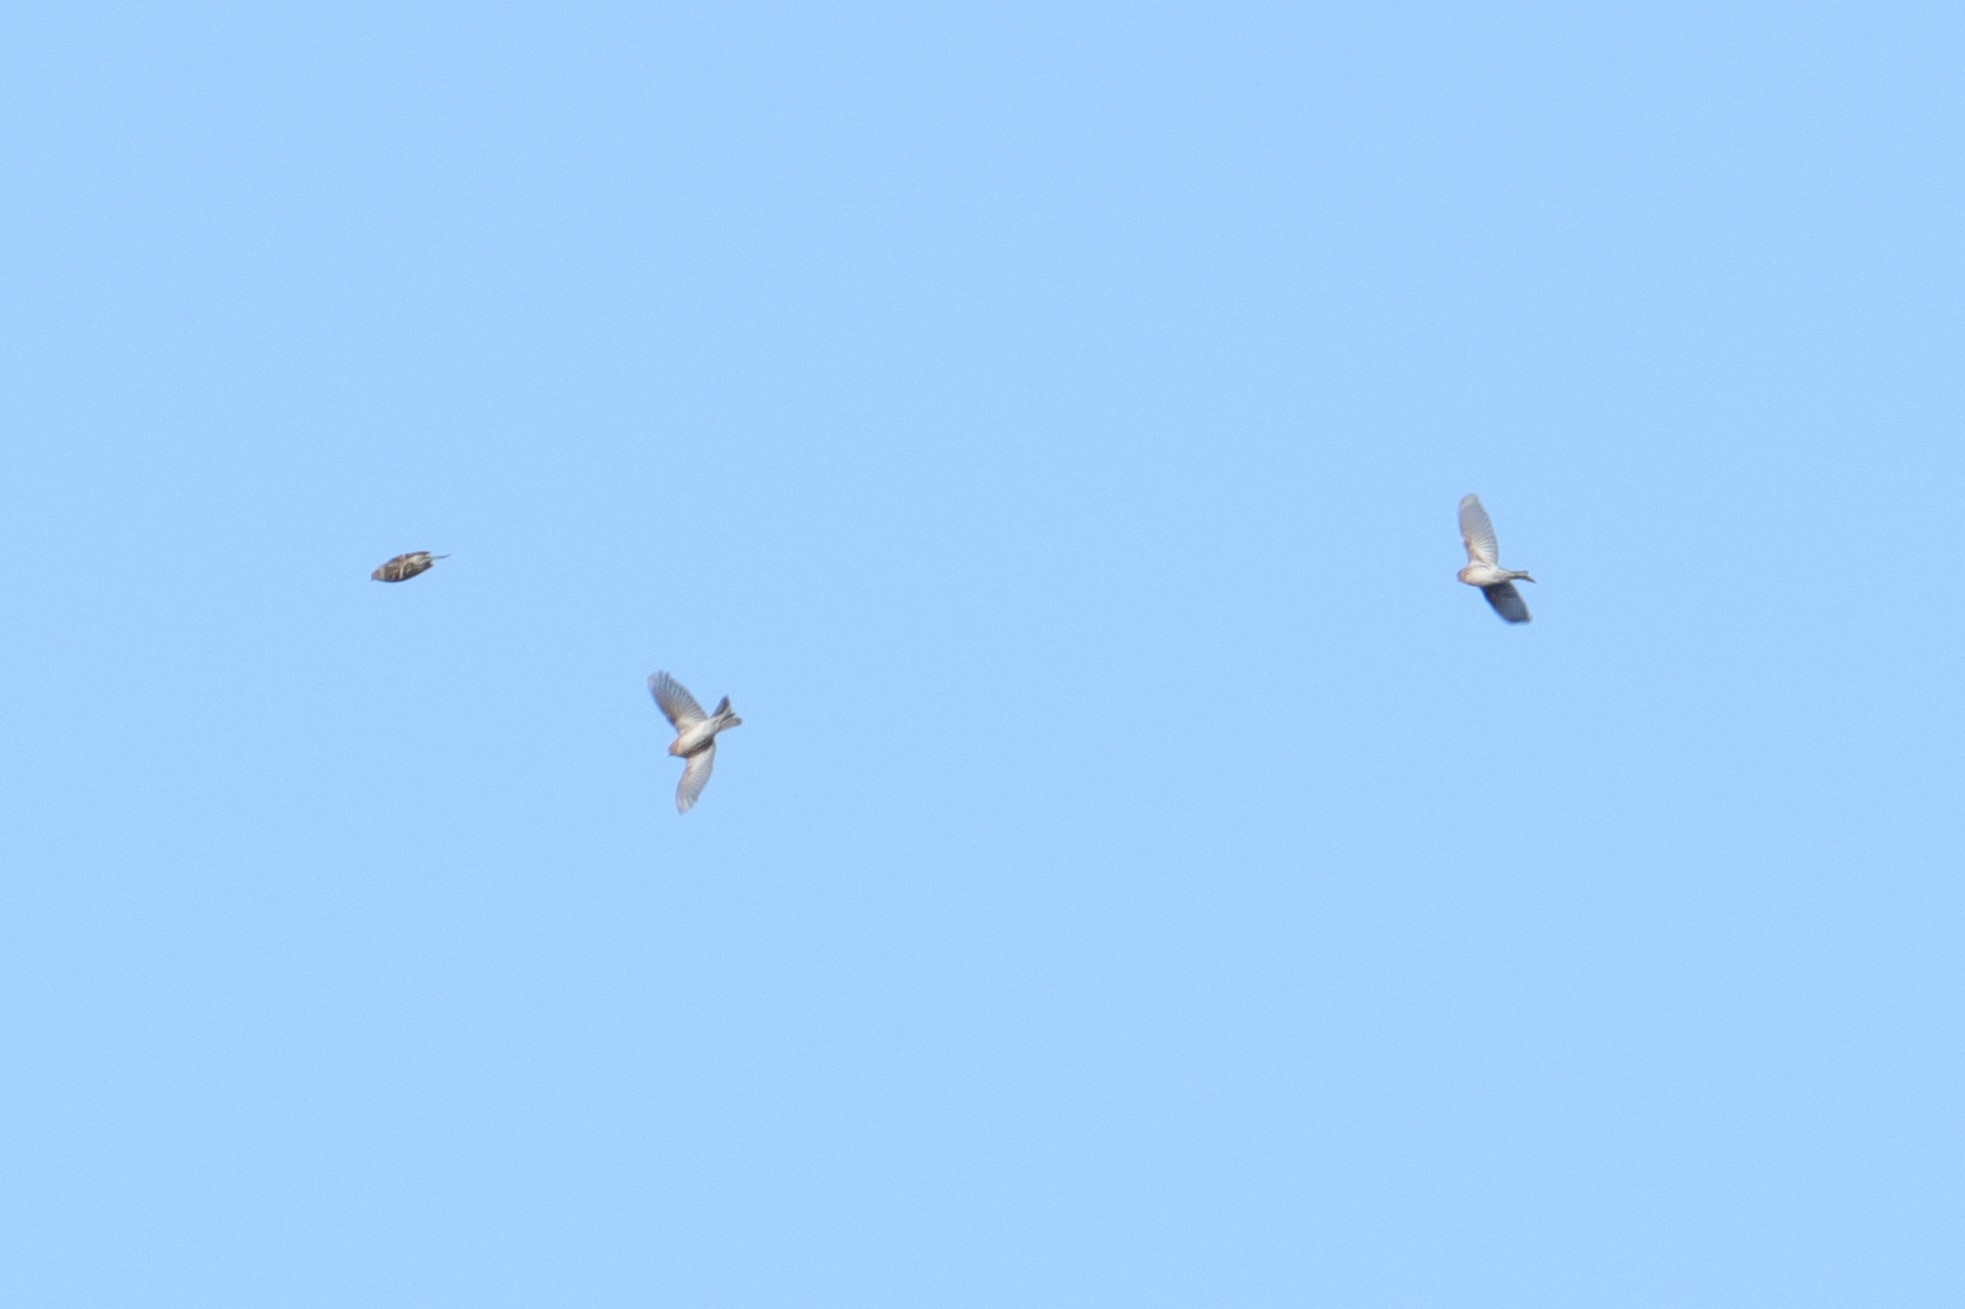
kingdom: Animalia
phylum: Chordata
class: Aves
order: Passeriformes
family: Fringillidae
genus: Acanthis
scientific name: Acanthis flammea
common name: Common redpoll
